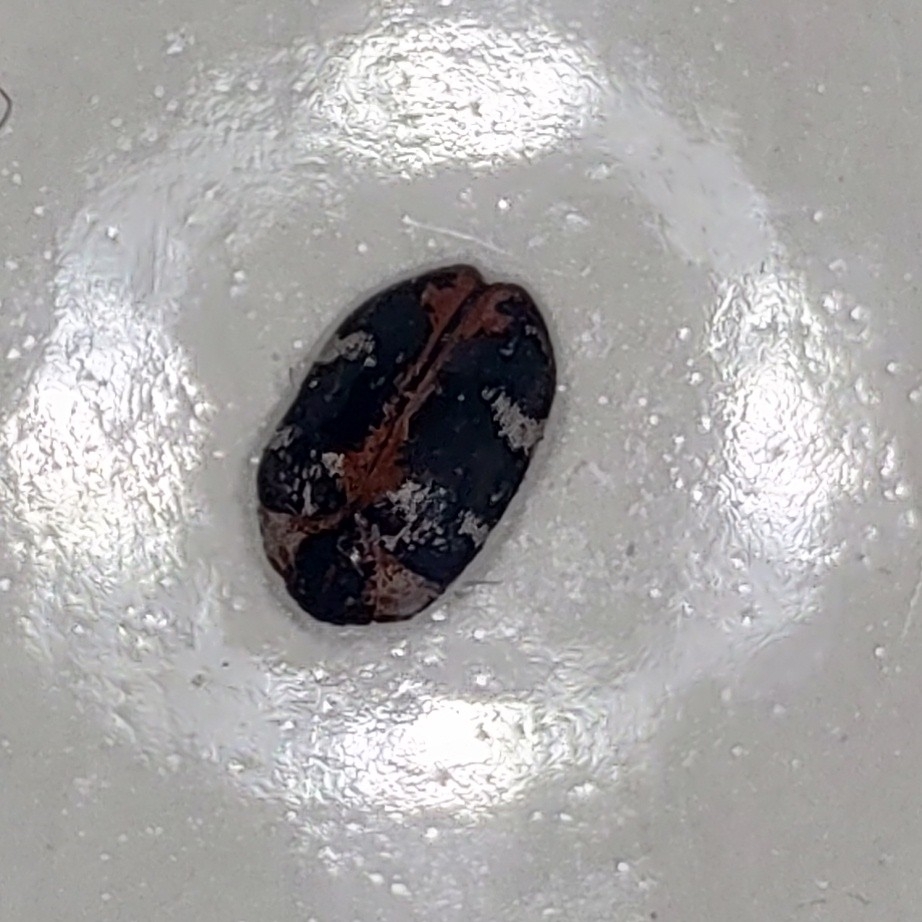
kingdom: Animalia
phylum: Arthropoda
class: Insecta
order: Coleoptera
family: Dermestidae
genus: Anthrenus
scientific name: Anthrenus scrophulariae
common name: Buffalo carpet beetle
